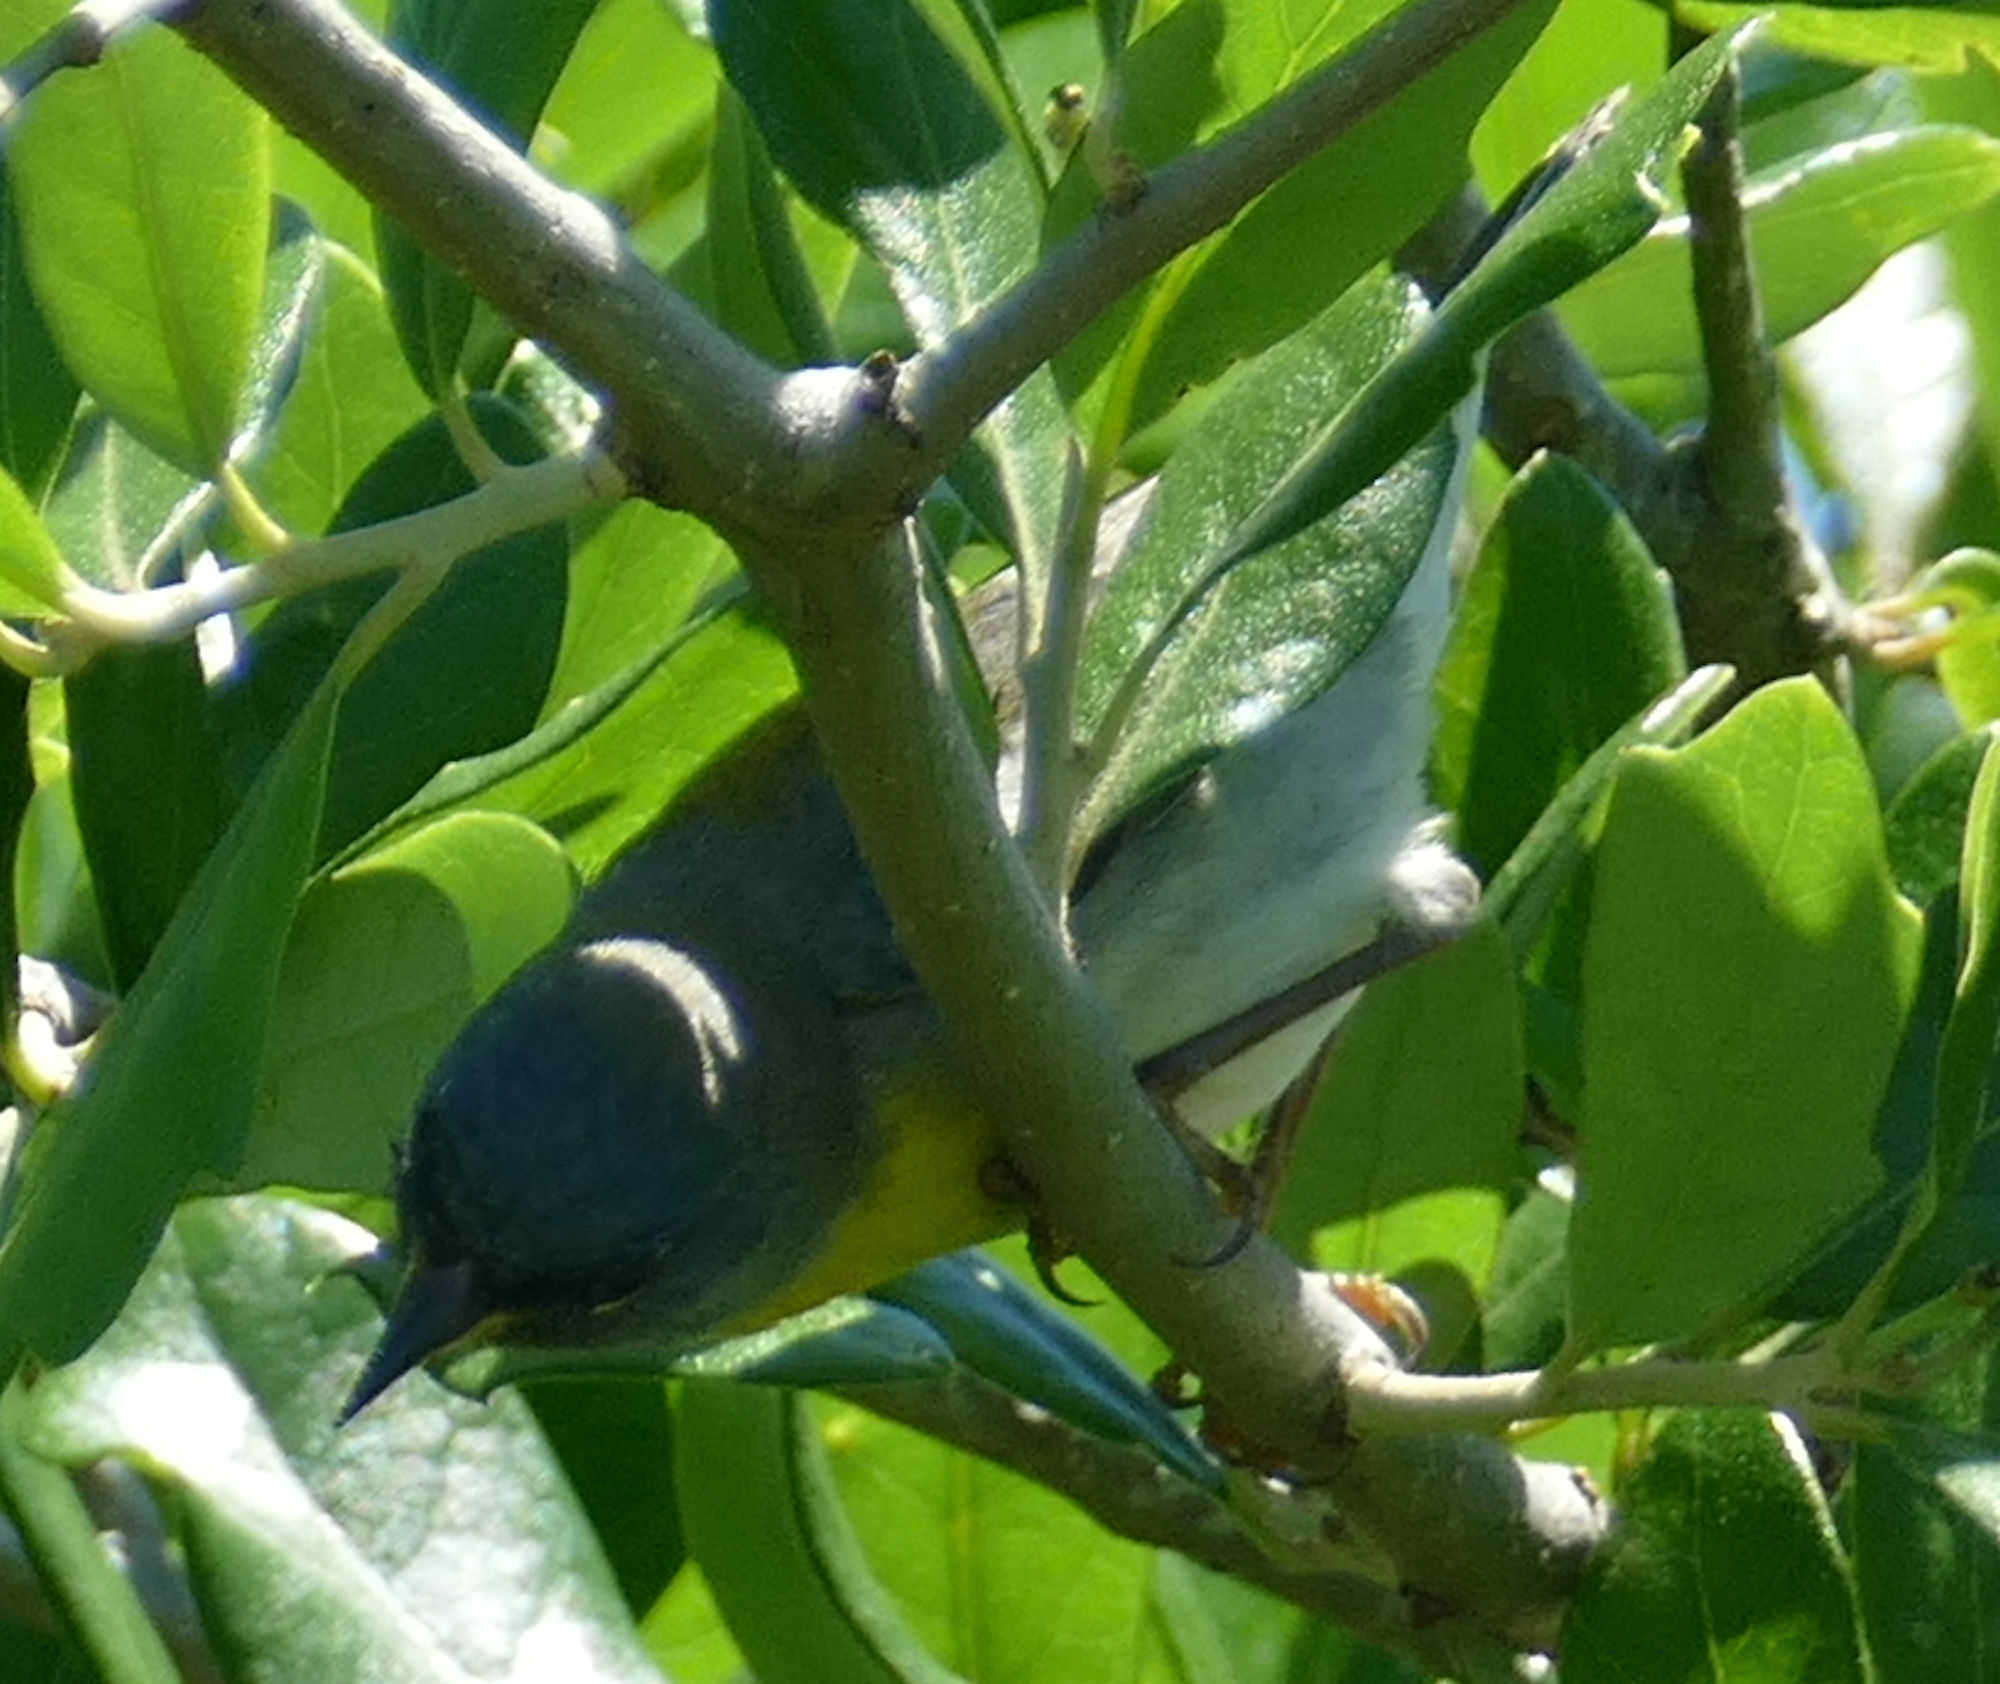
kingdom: Animalia
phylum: Chordata
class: Aves
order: Passeriformes
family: Parulidae
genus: Setophaga
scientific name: Setophaga americana
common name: Northern parula
